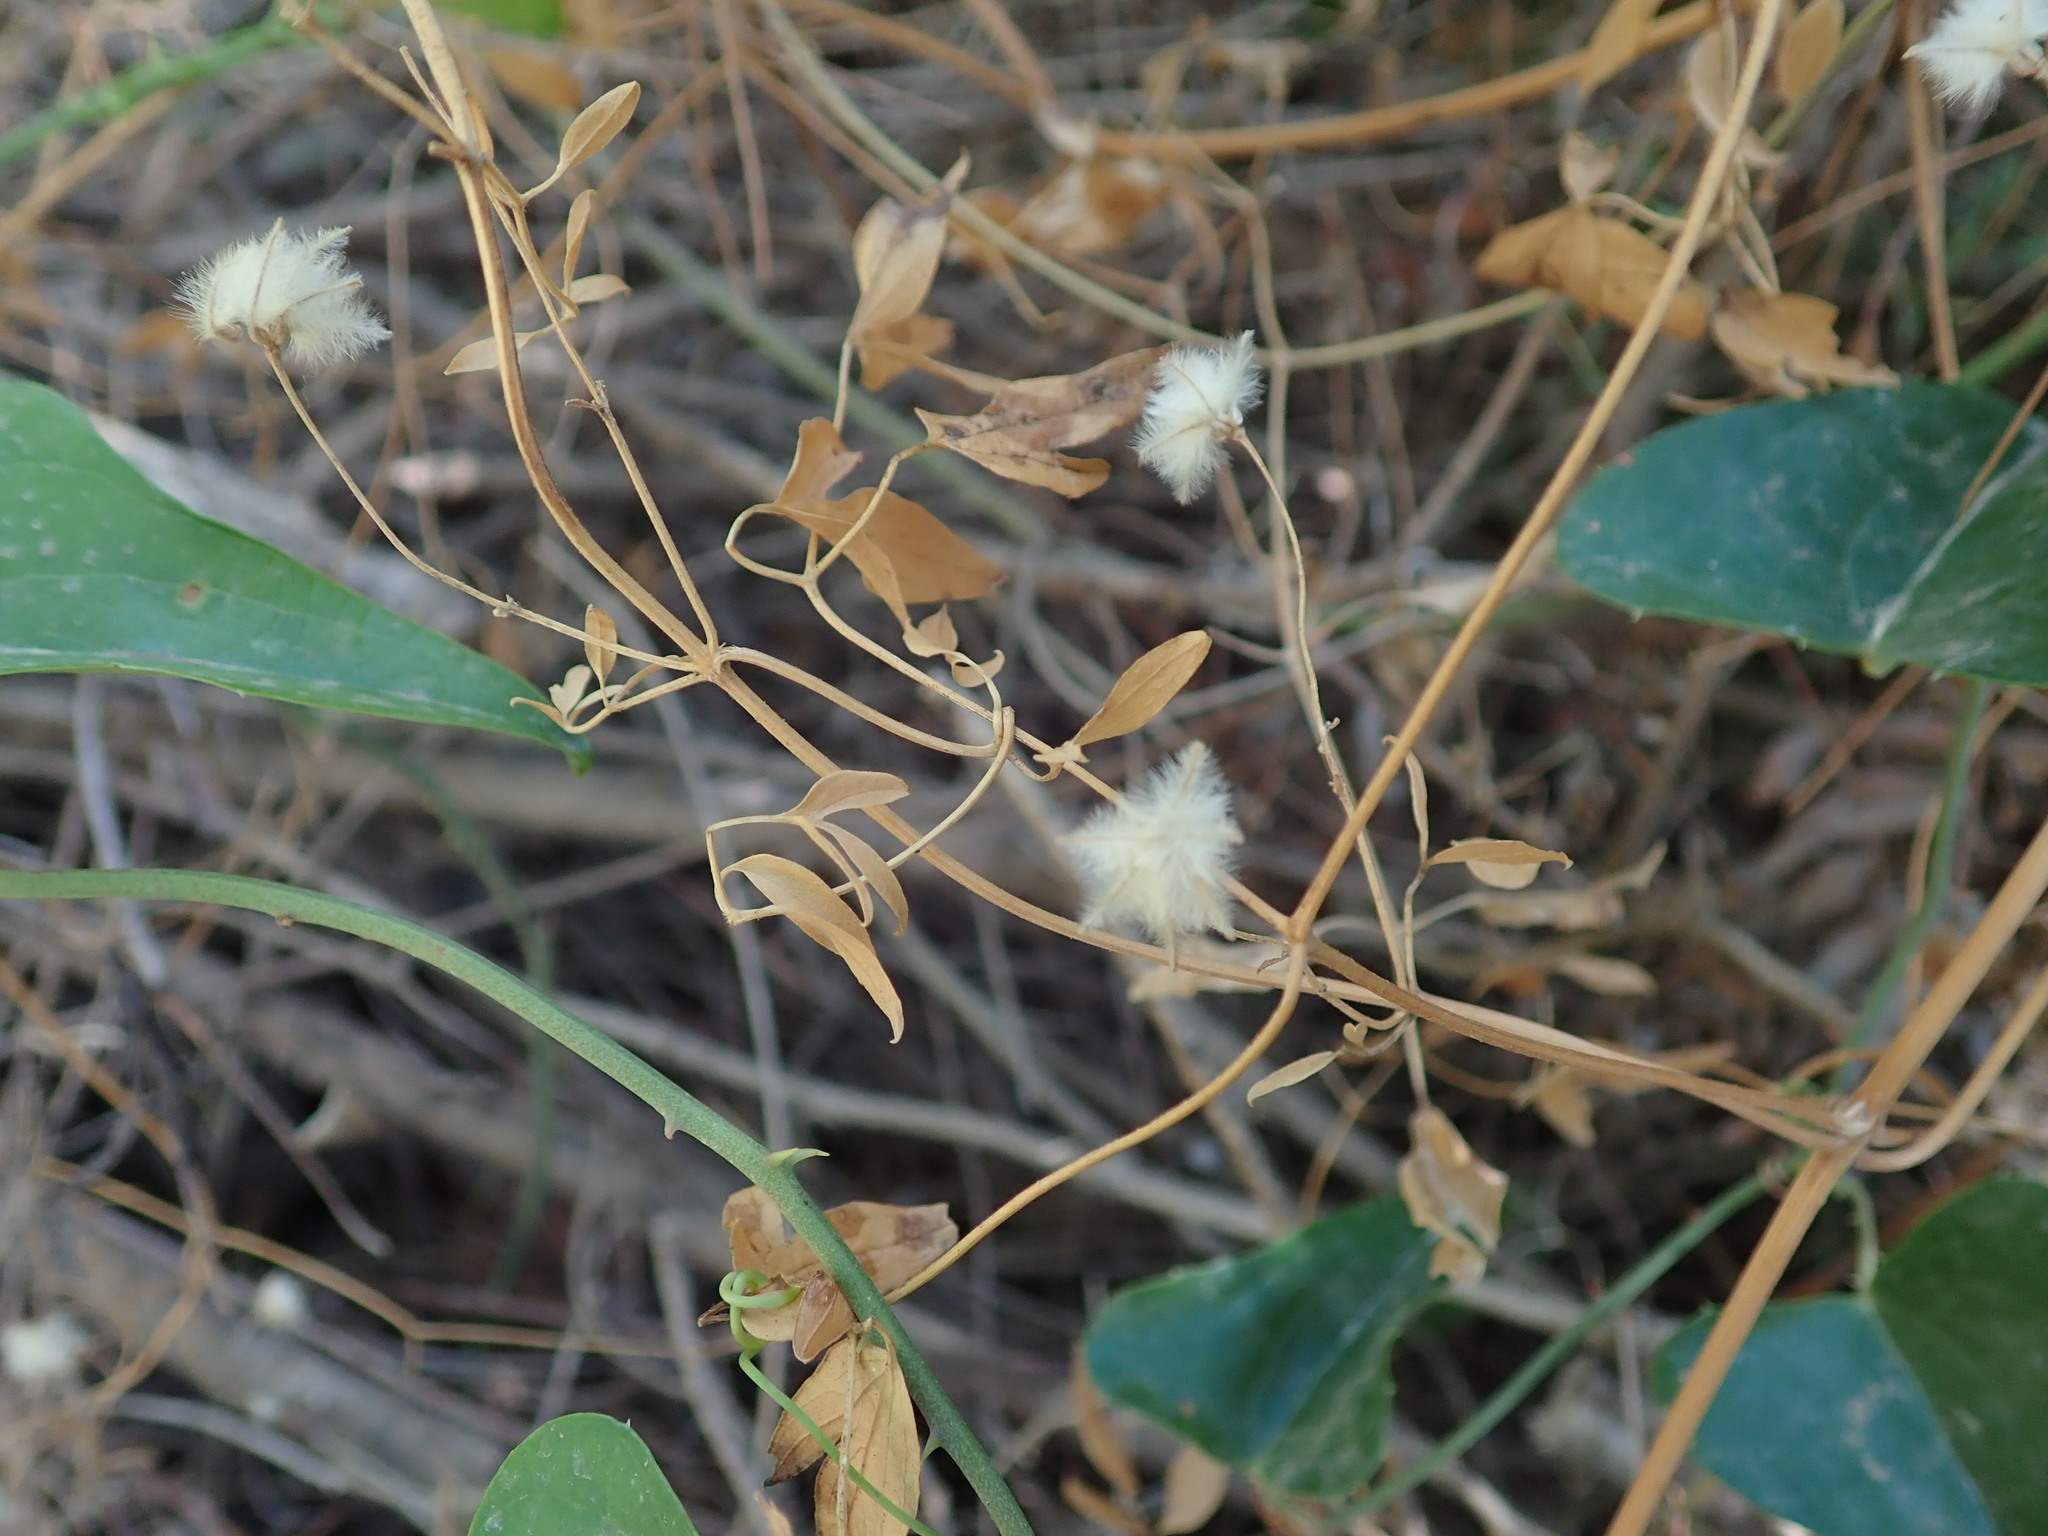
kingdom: Plantae
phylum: Tracheophyta
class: Magnoliopsida
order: Ranunculales
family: Ranunculaceae
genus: Clematis
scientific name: Clematis flammula
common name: Virgin's-bower
